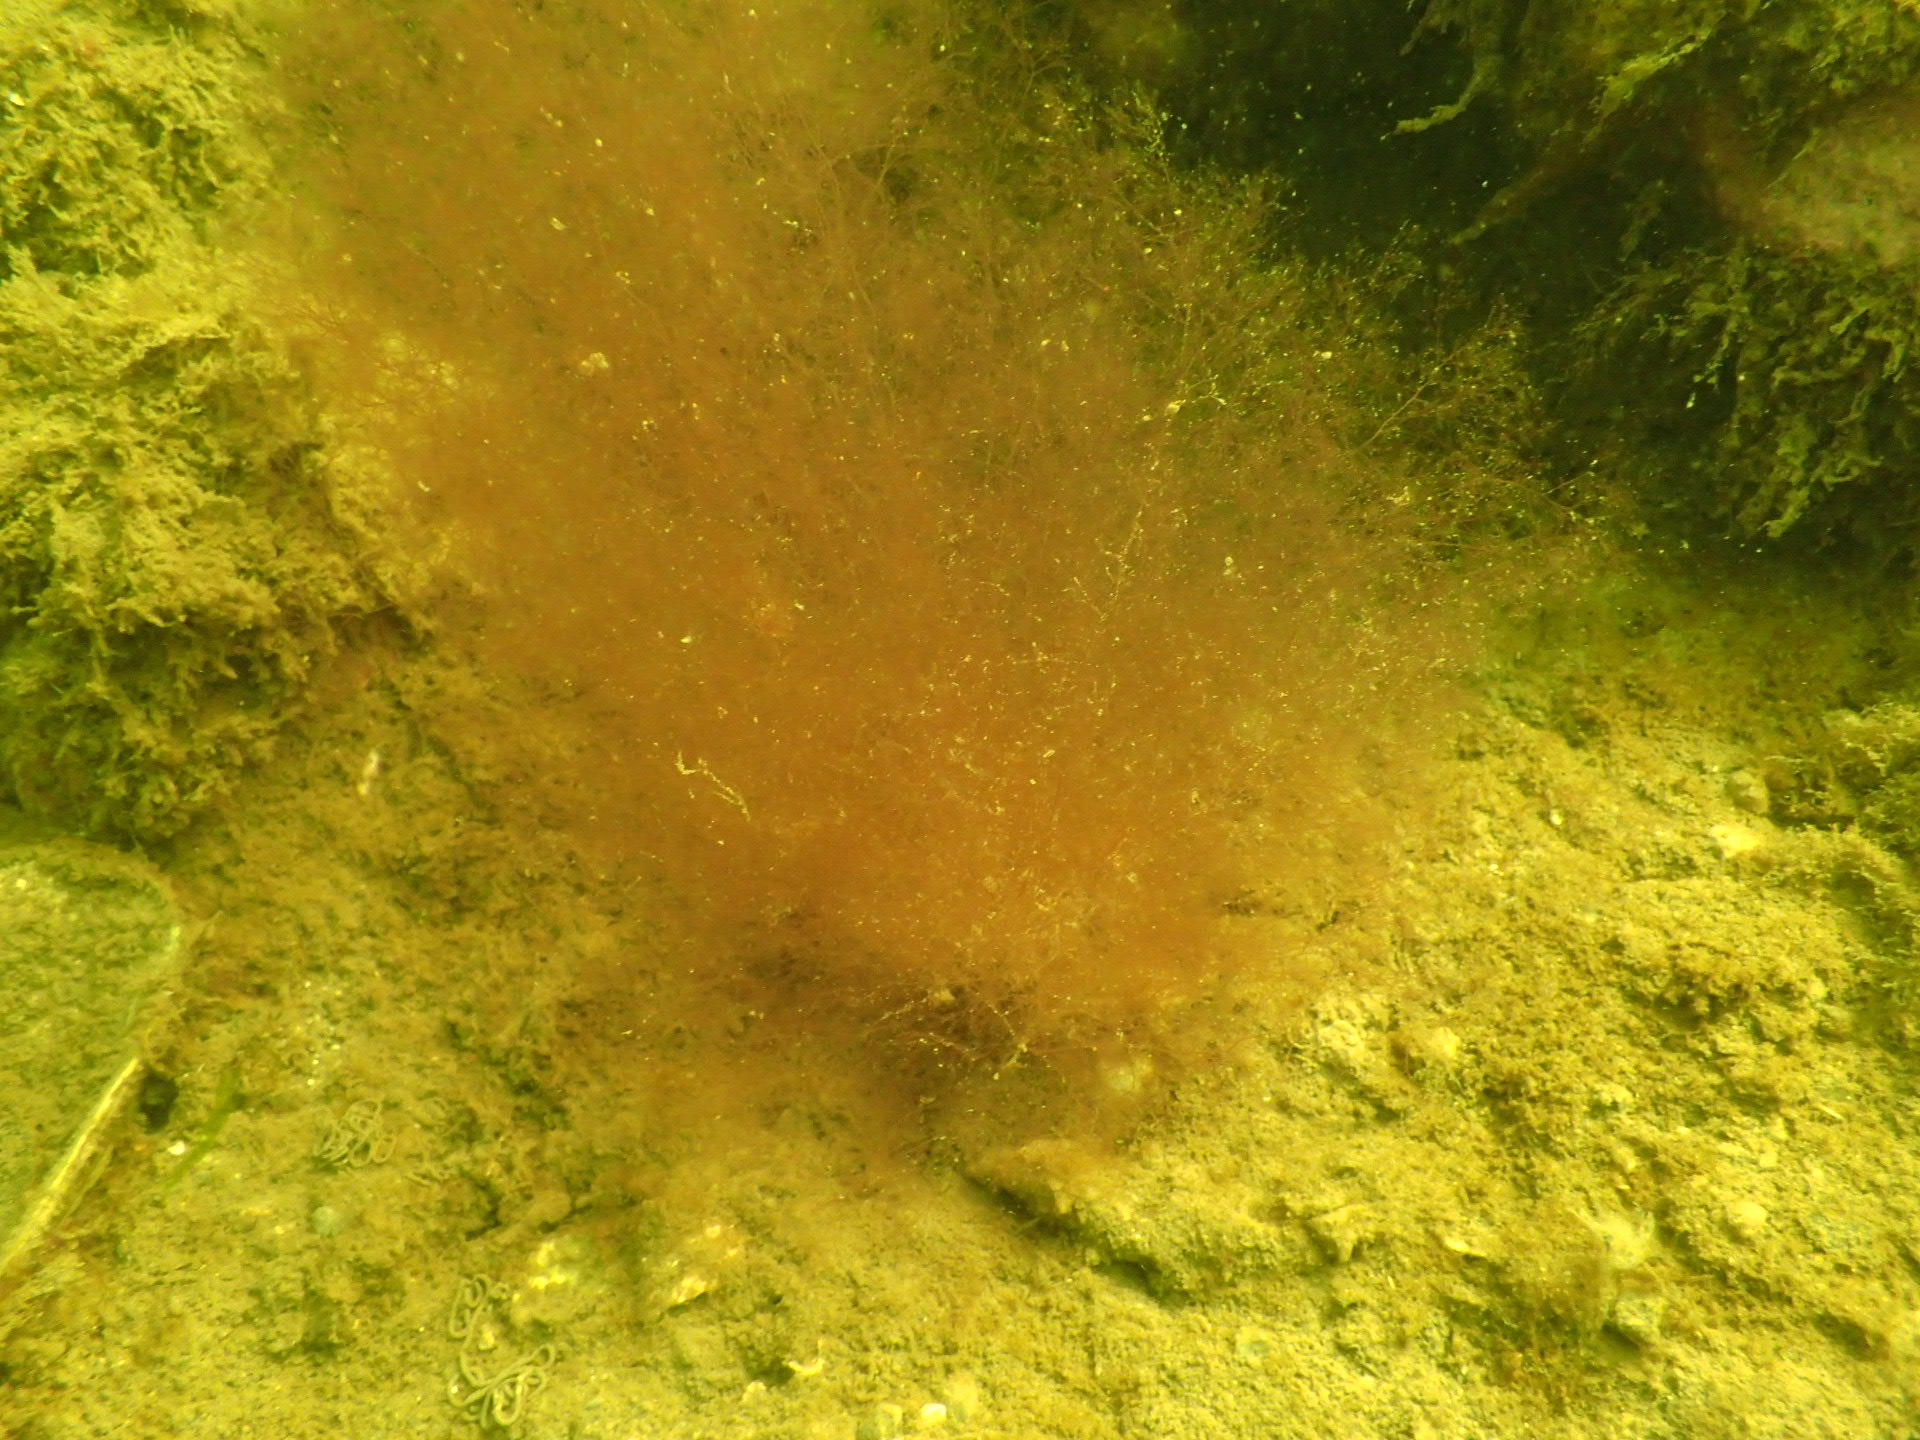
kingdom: Plantae
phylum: Rhodophyta
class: Florideophyceae
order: Ceramiales
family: Rhodomelaceae
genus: Polysiphonia
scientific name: Polysiphonia stricta
